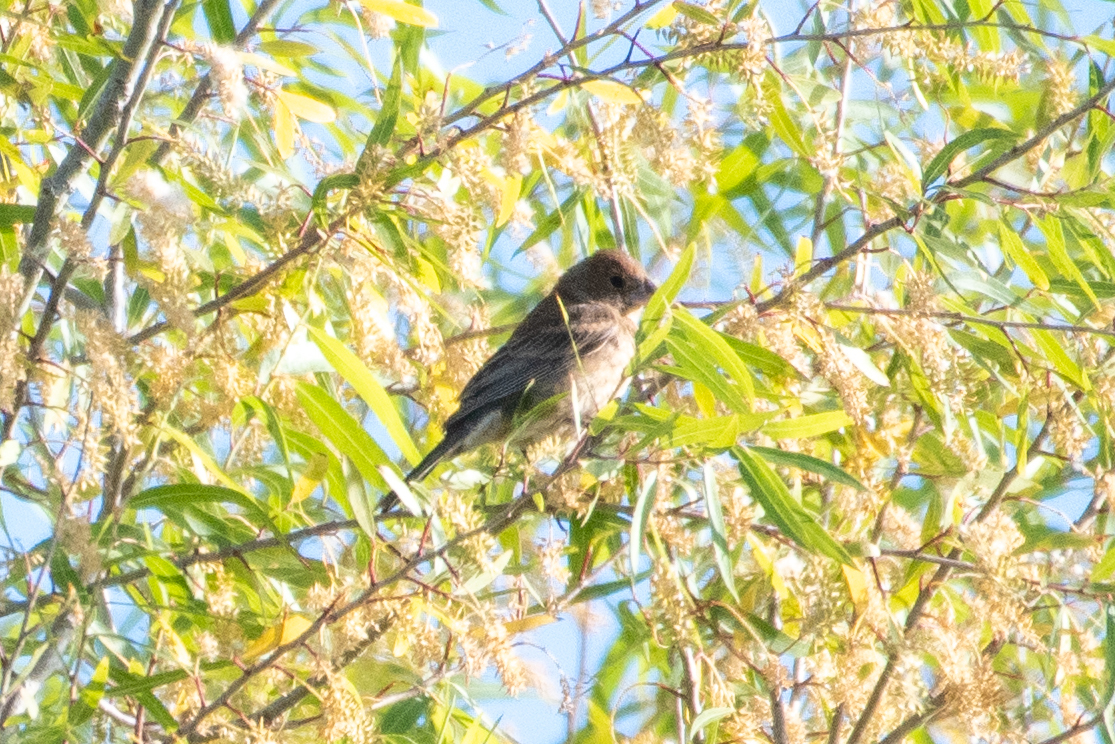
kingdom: Animalia
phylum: Chordata
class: Aves
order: Passeriformes
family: Cardinalidae
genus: Passerina
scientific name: Passerina caerulea
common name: Blue grosbeak
